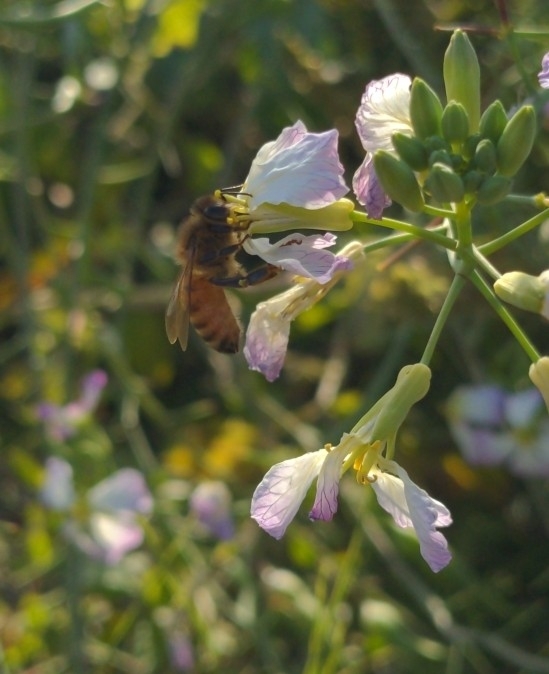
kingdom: Animalia
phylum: Arthropoda
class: Insecta
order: Hymenoptera
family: Apidae
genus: Apis
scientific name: Apis mellifera
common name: Honey bee
